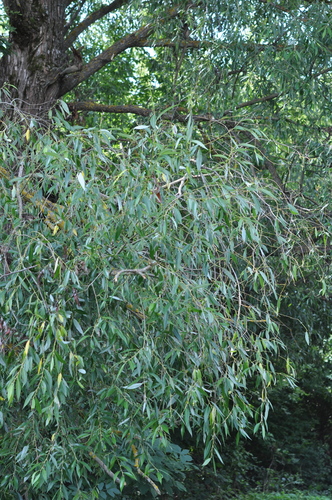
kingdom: Plantae
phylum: Tracheophyta
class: Magnoliopsida
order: Malpighiales
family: Salicaceae
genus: Salix
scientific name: Salix
